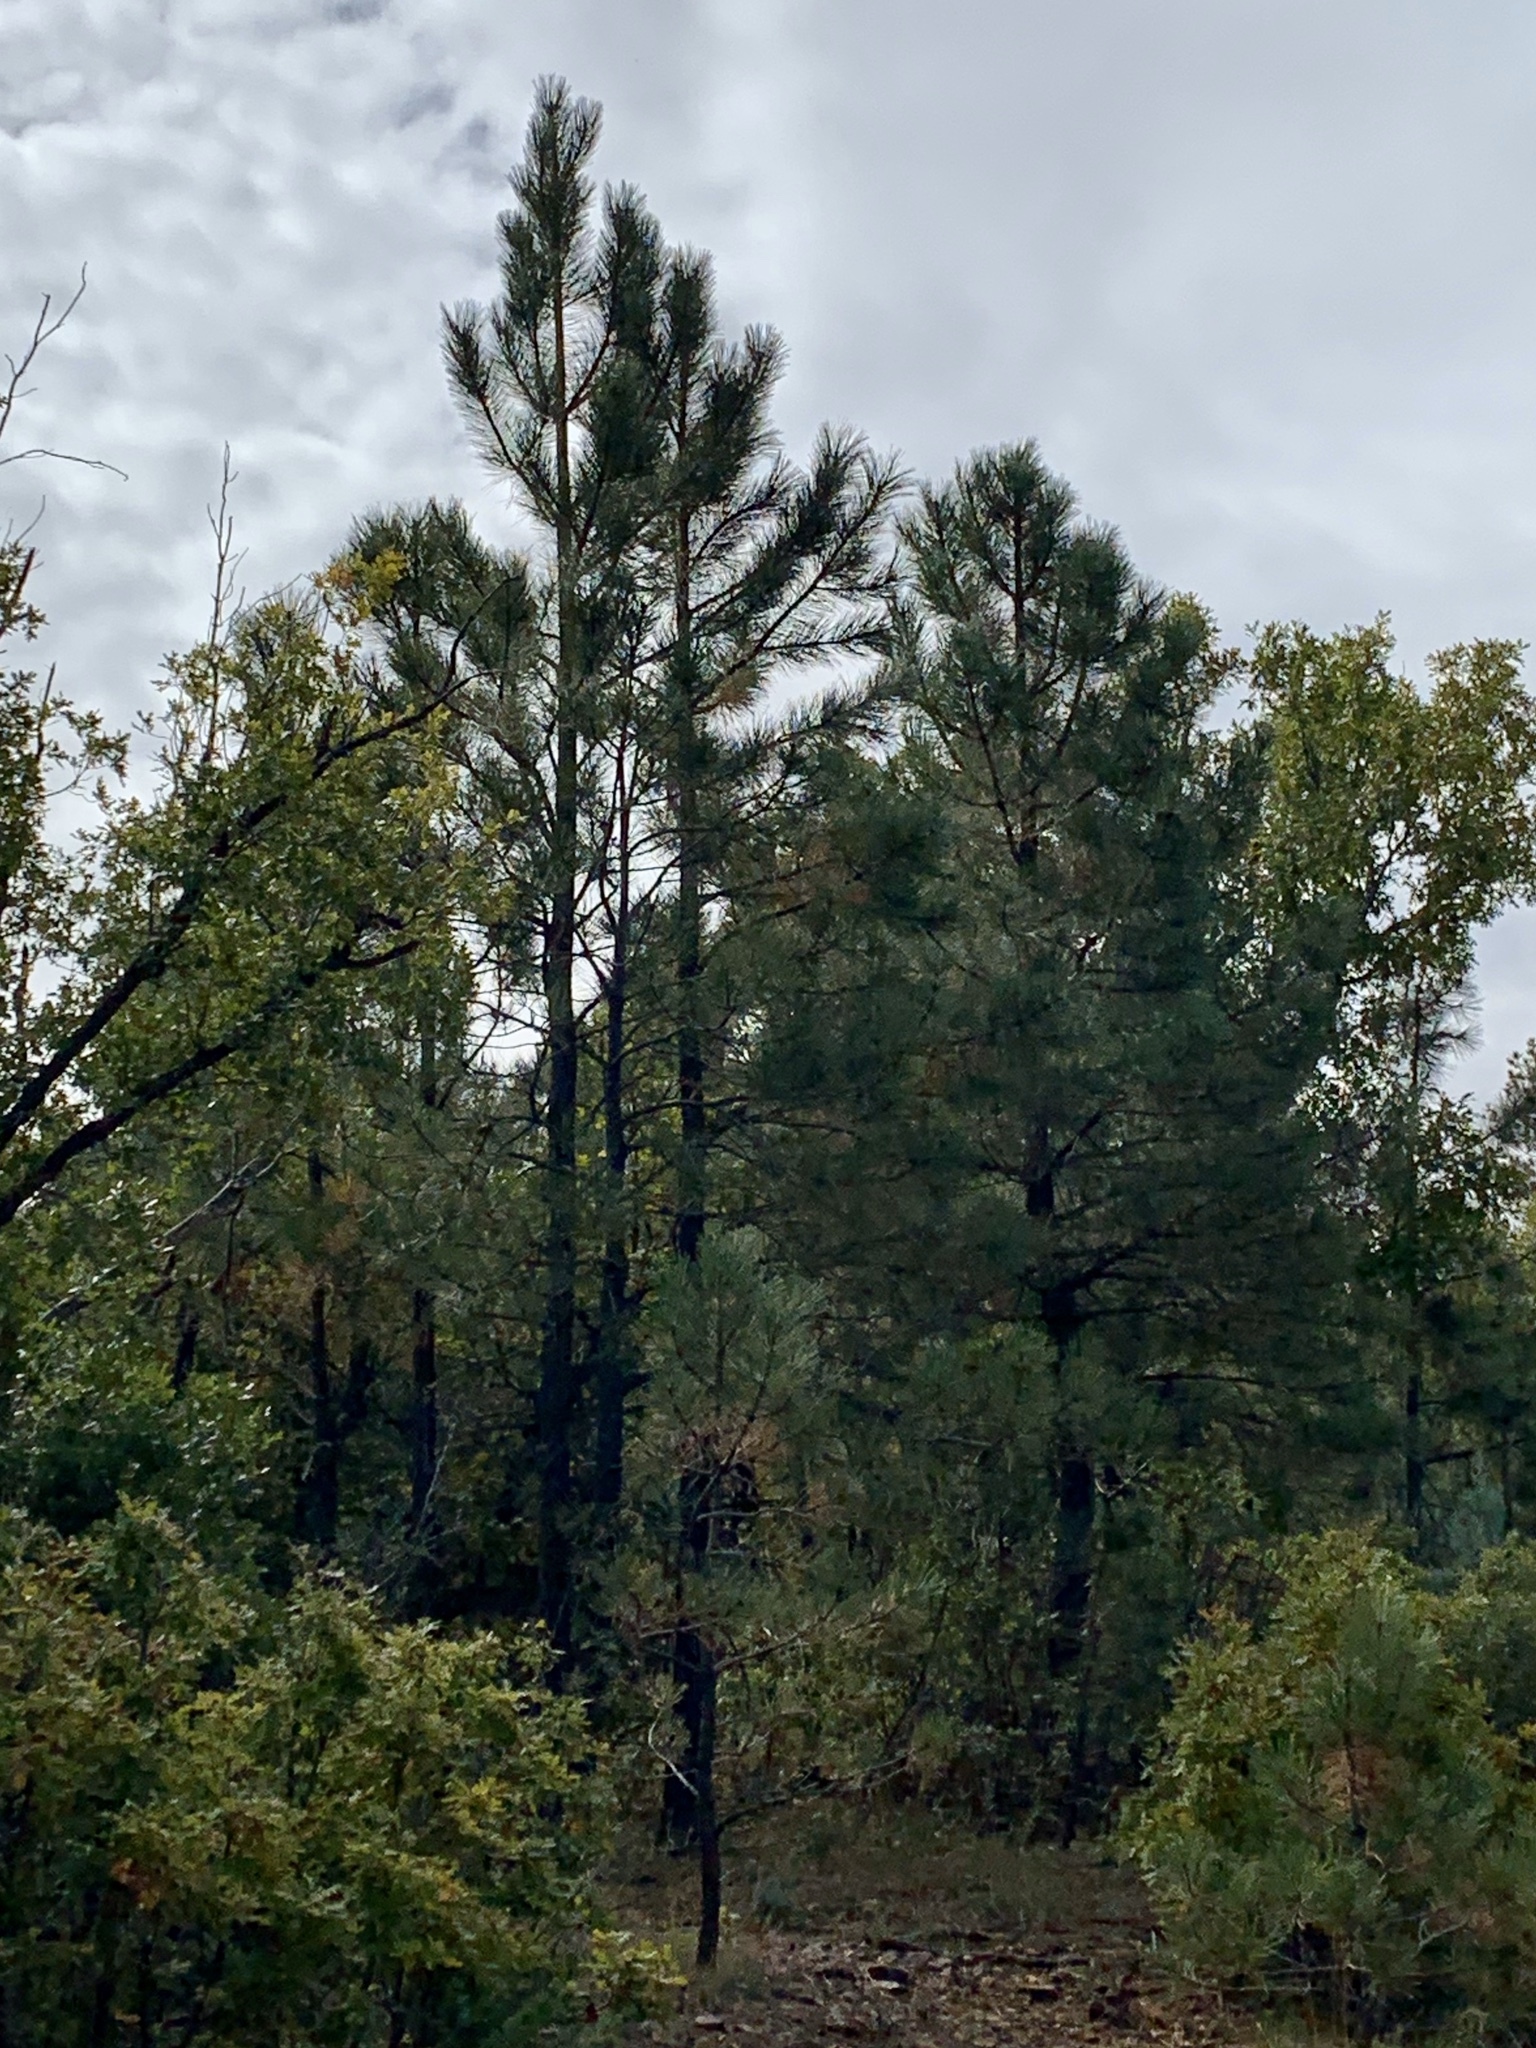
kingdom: Plantae
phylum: Tracheophyta
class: Pinopsida
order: Pinales
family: Pinaceae
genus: Pinus
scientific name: Pinus ponderosa
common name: Western yellow-pine
